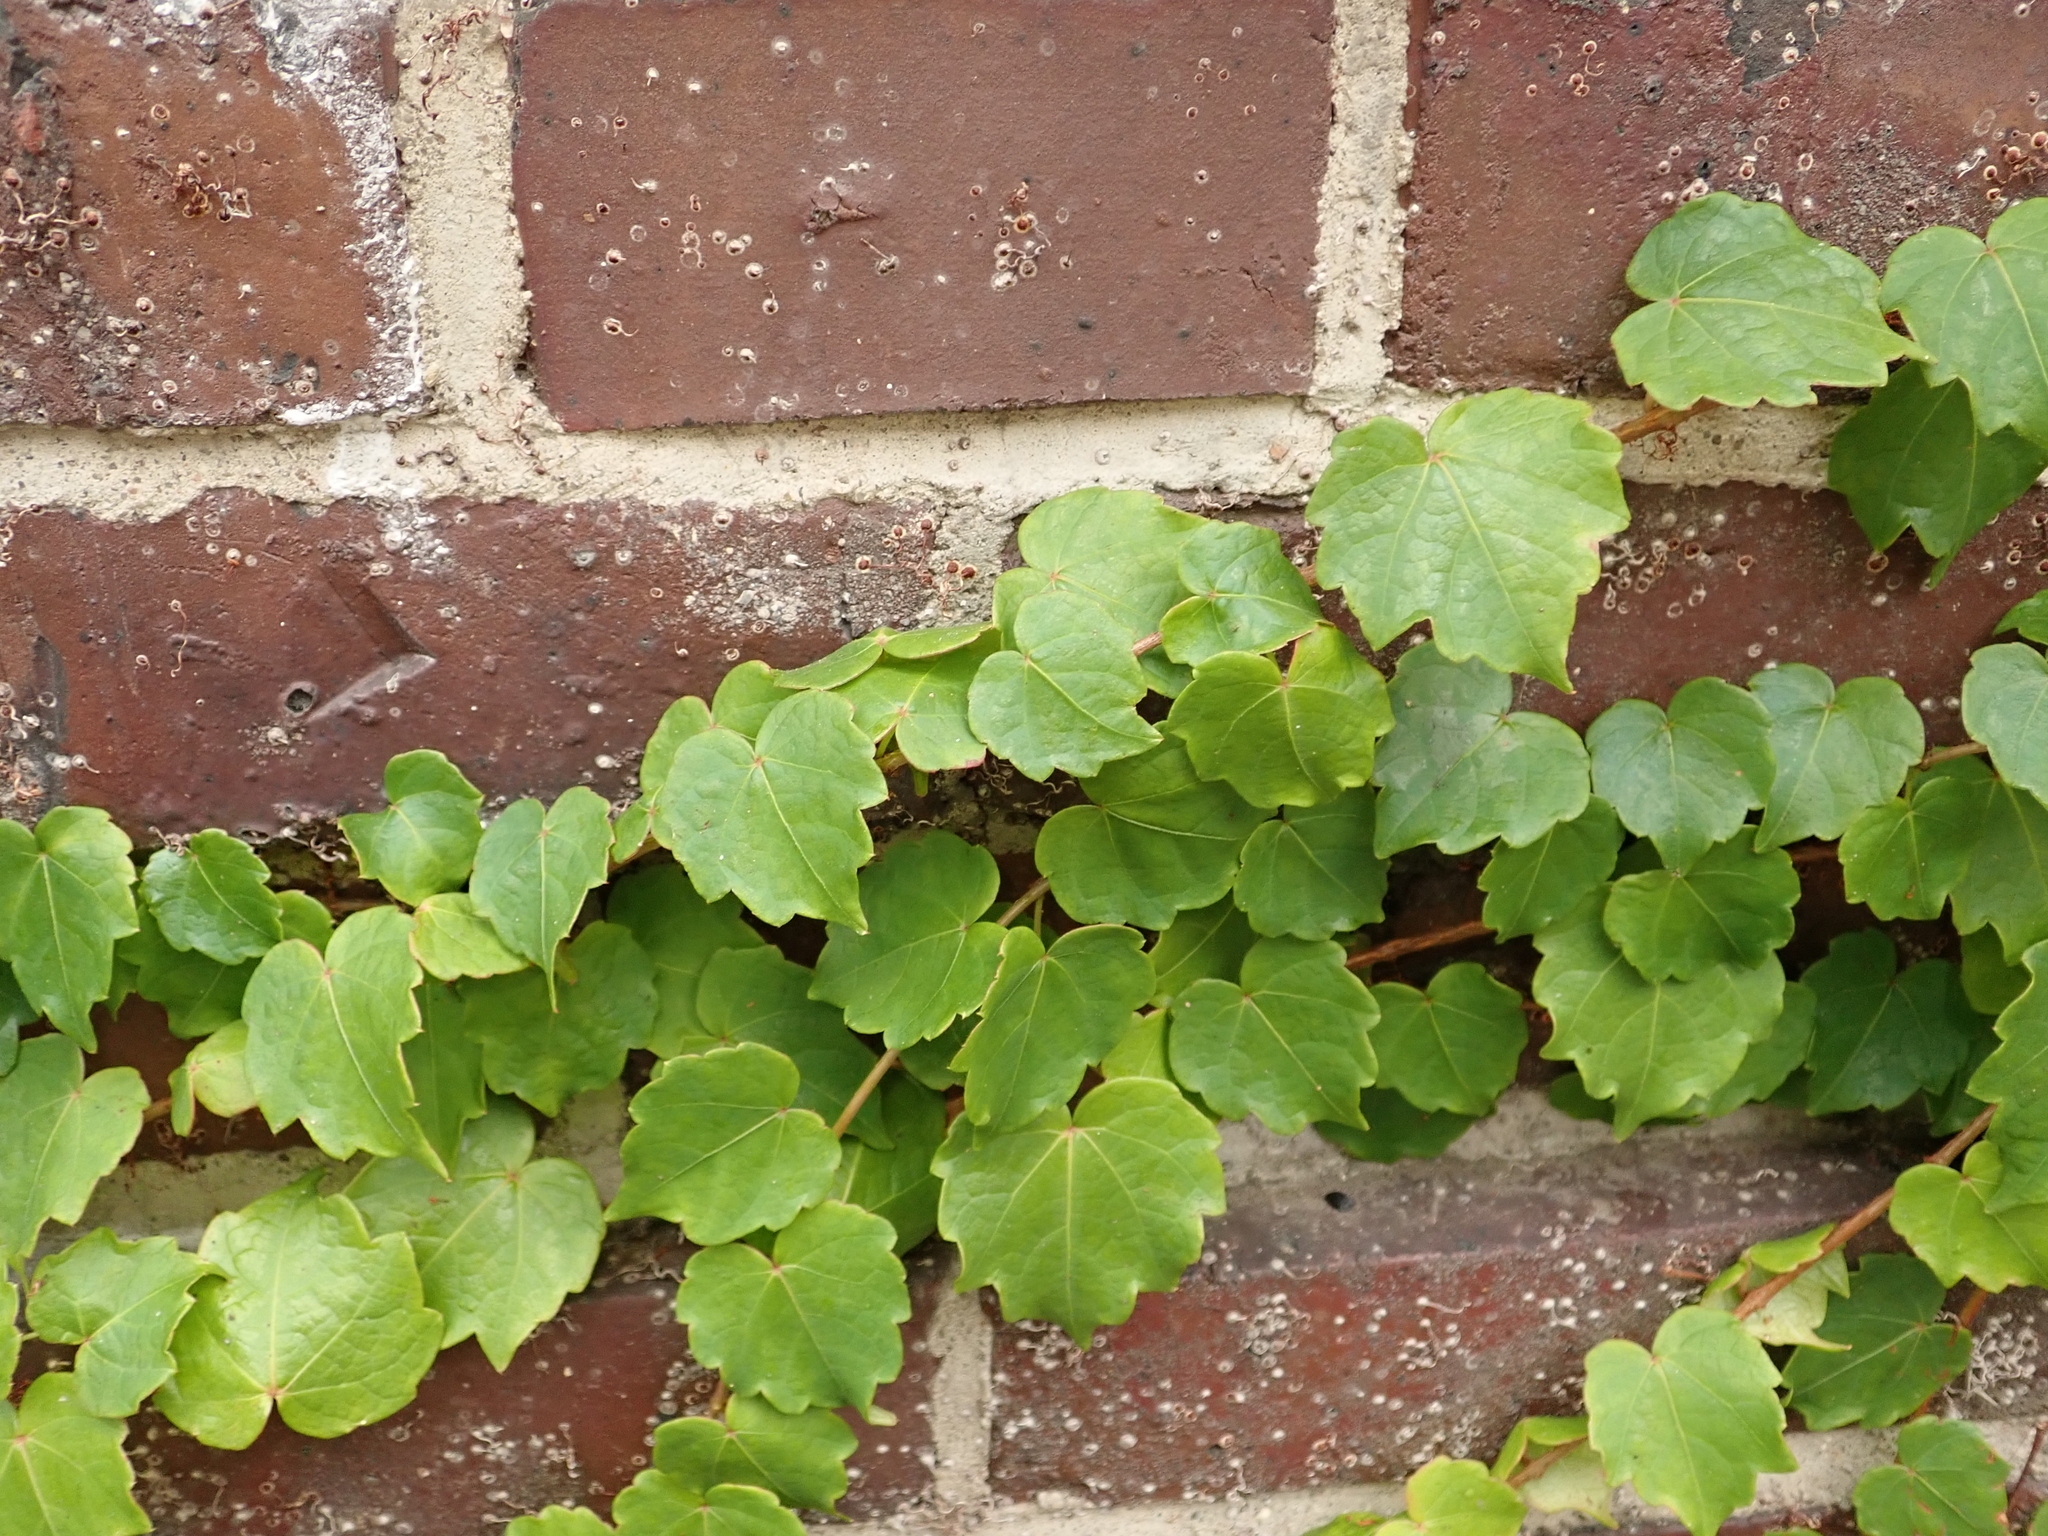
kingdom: Plantae
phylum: Tracheophyta
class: Magnoliopsida
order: Vitales
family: Vitaceae
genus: Parthenocissus
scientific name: Parthenocissus tricuspidata
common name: Boston ivy
